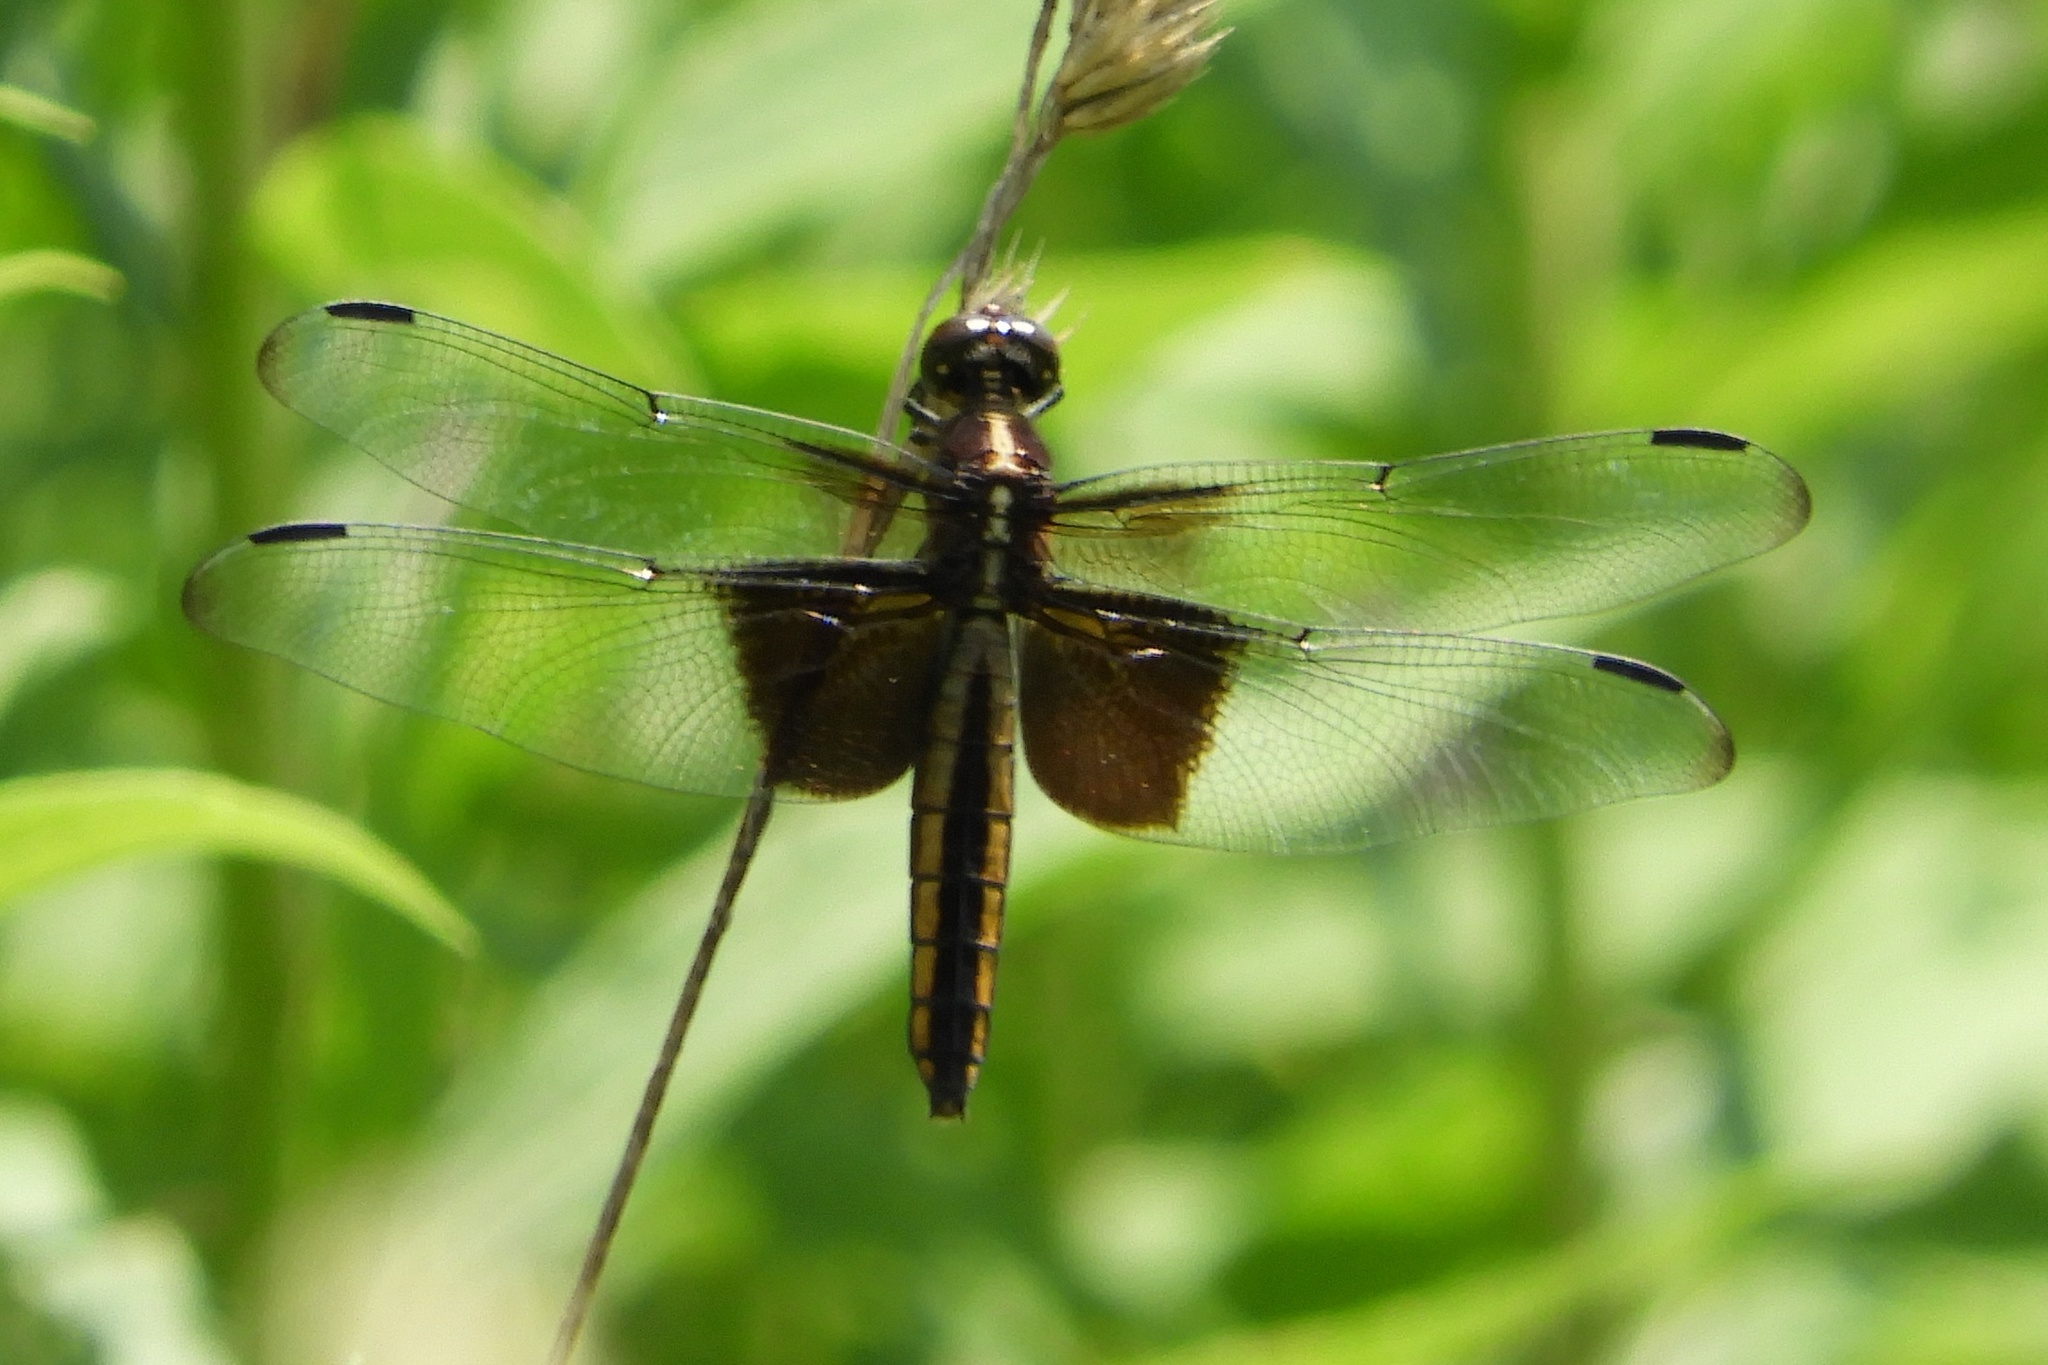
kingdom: Animalia
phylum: Arthropoda
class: Insecta
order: Odonata
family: Libellulidae
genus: Libellula
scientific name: Libellula luctuosa
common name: Widow skimmer
